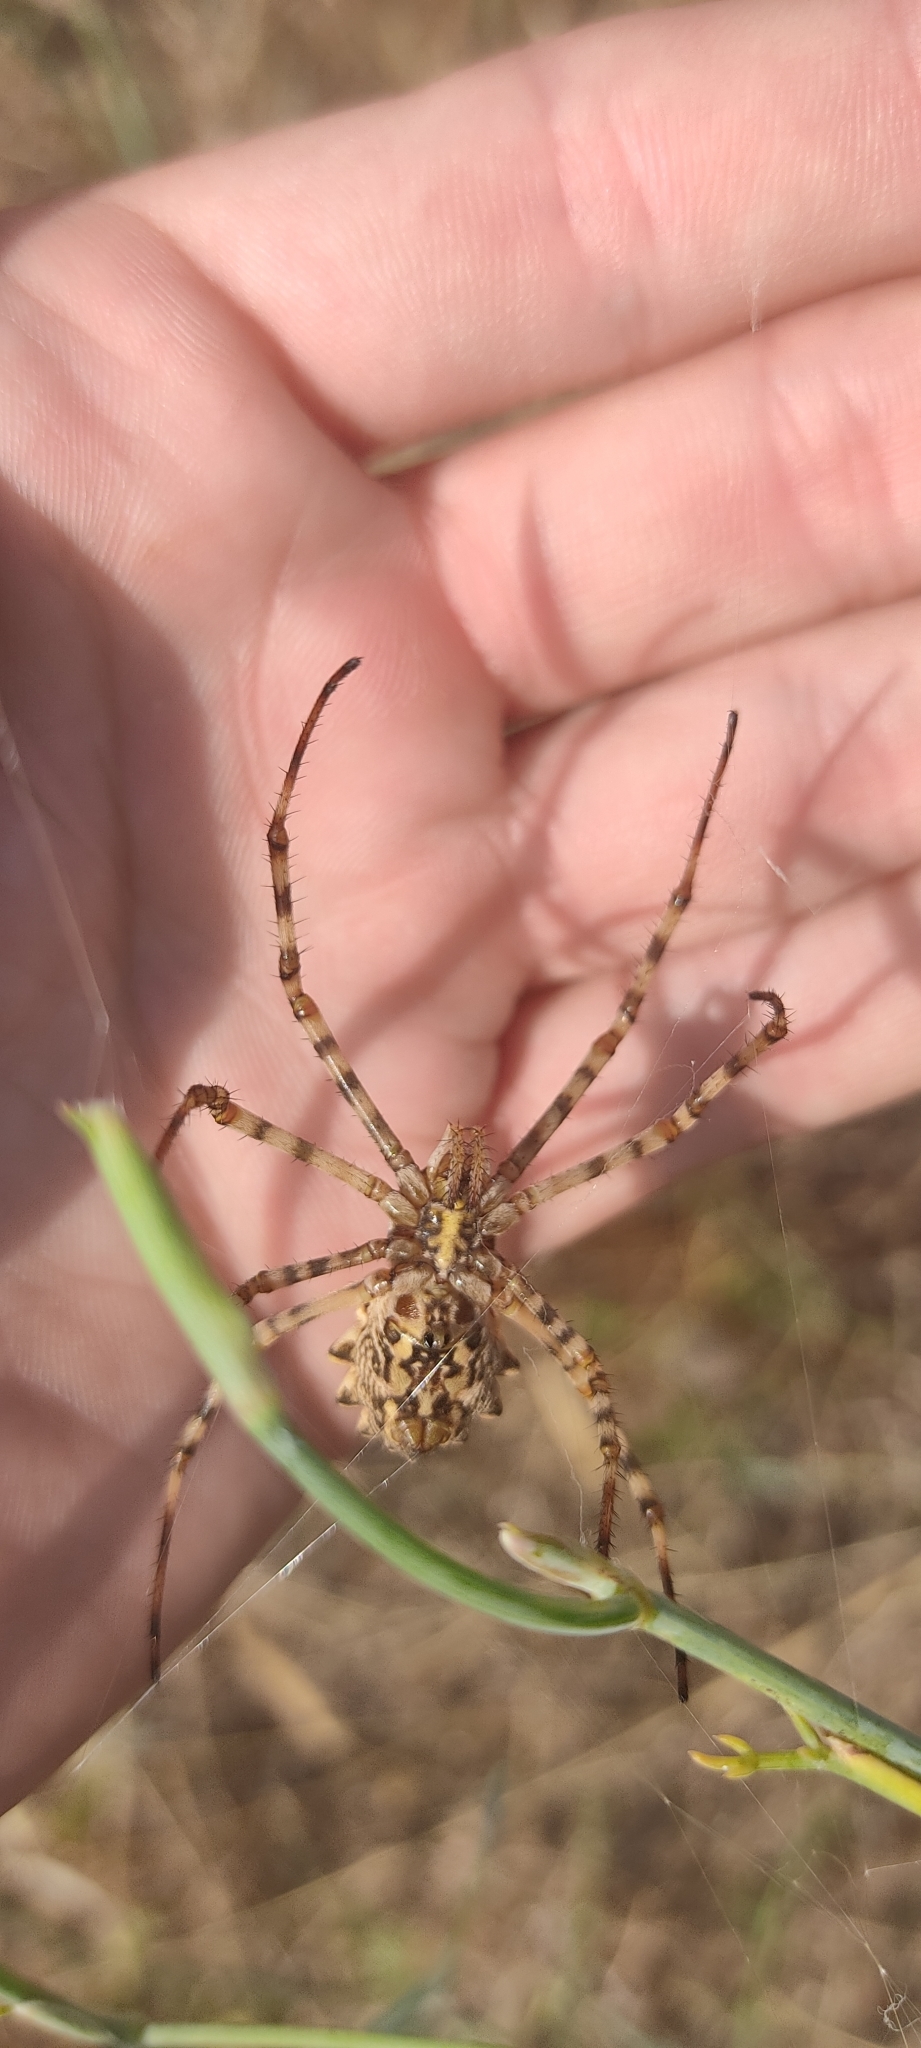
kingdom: Animalia
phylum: Arthropoda
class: Arachnida
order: Araneae
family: Araneidae
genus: Argiope
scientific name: Argiope lobata
